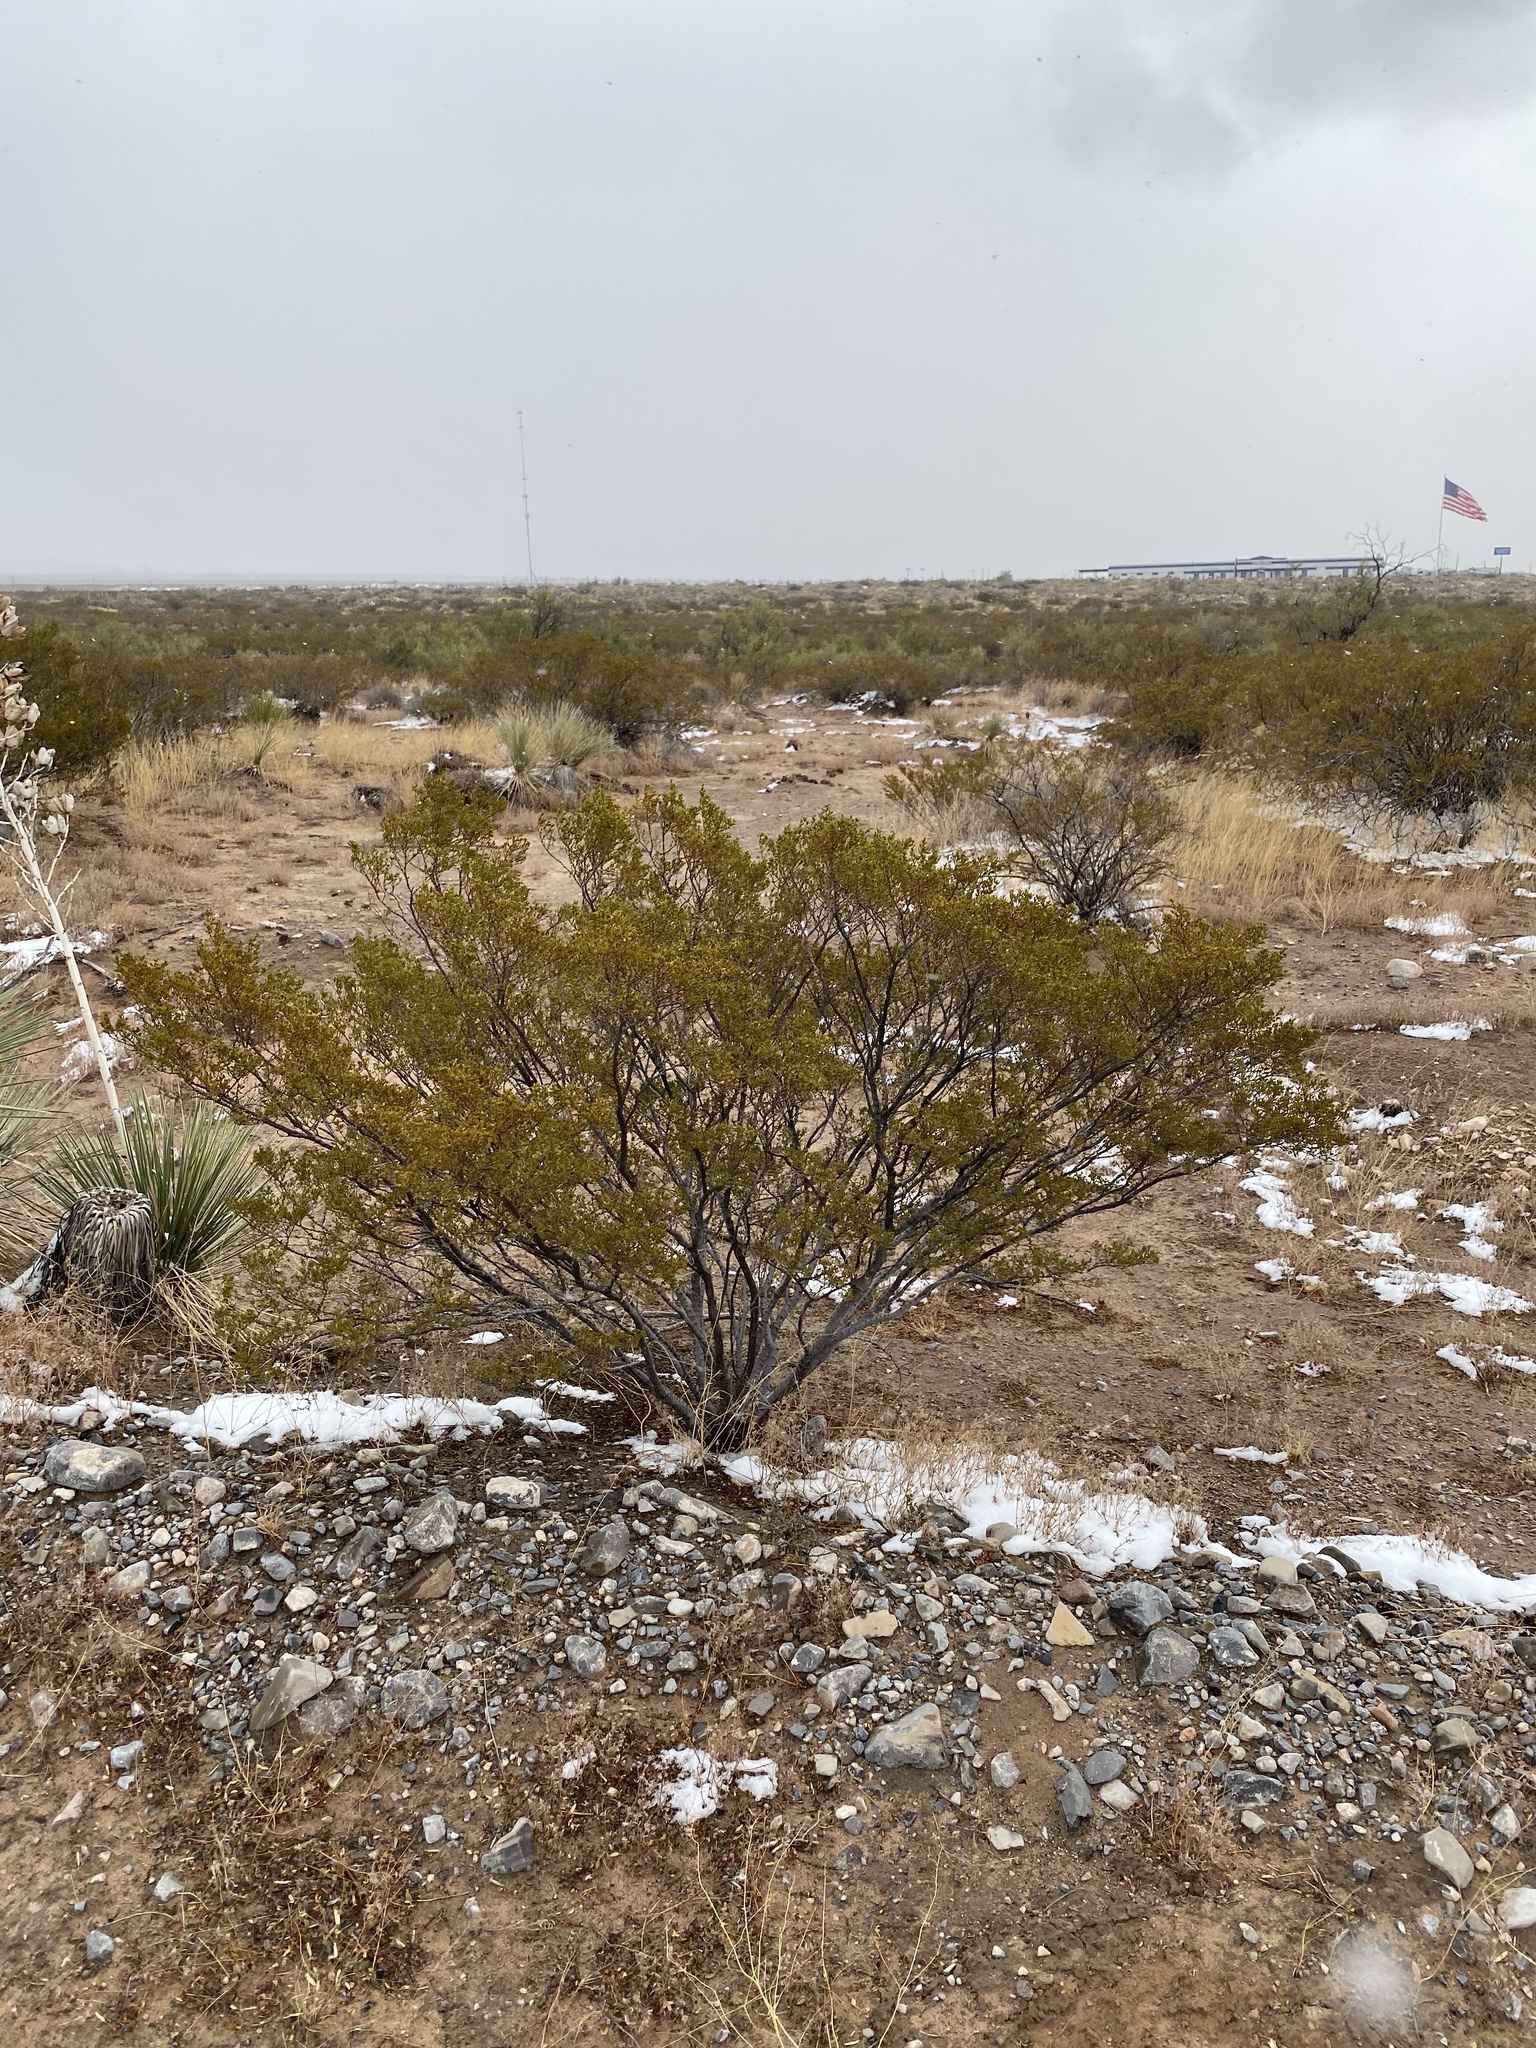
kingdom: Plantae
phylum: Tracheophyta
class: Magnoliopsida
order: Zygophyllales
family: Zygophyllaceae
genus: Larrea
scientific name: Larrea tridentata
